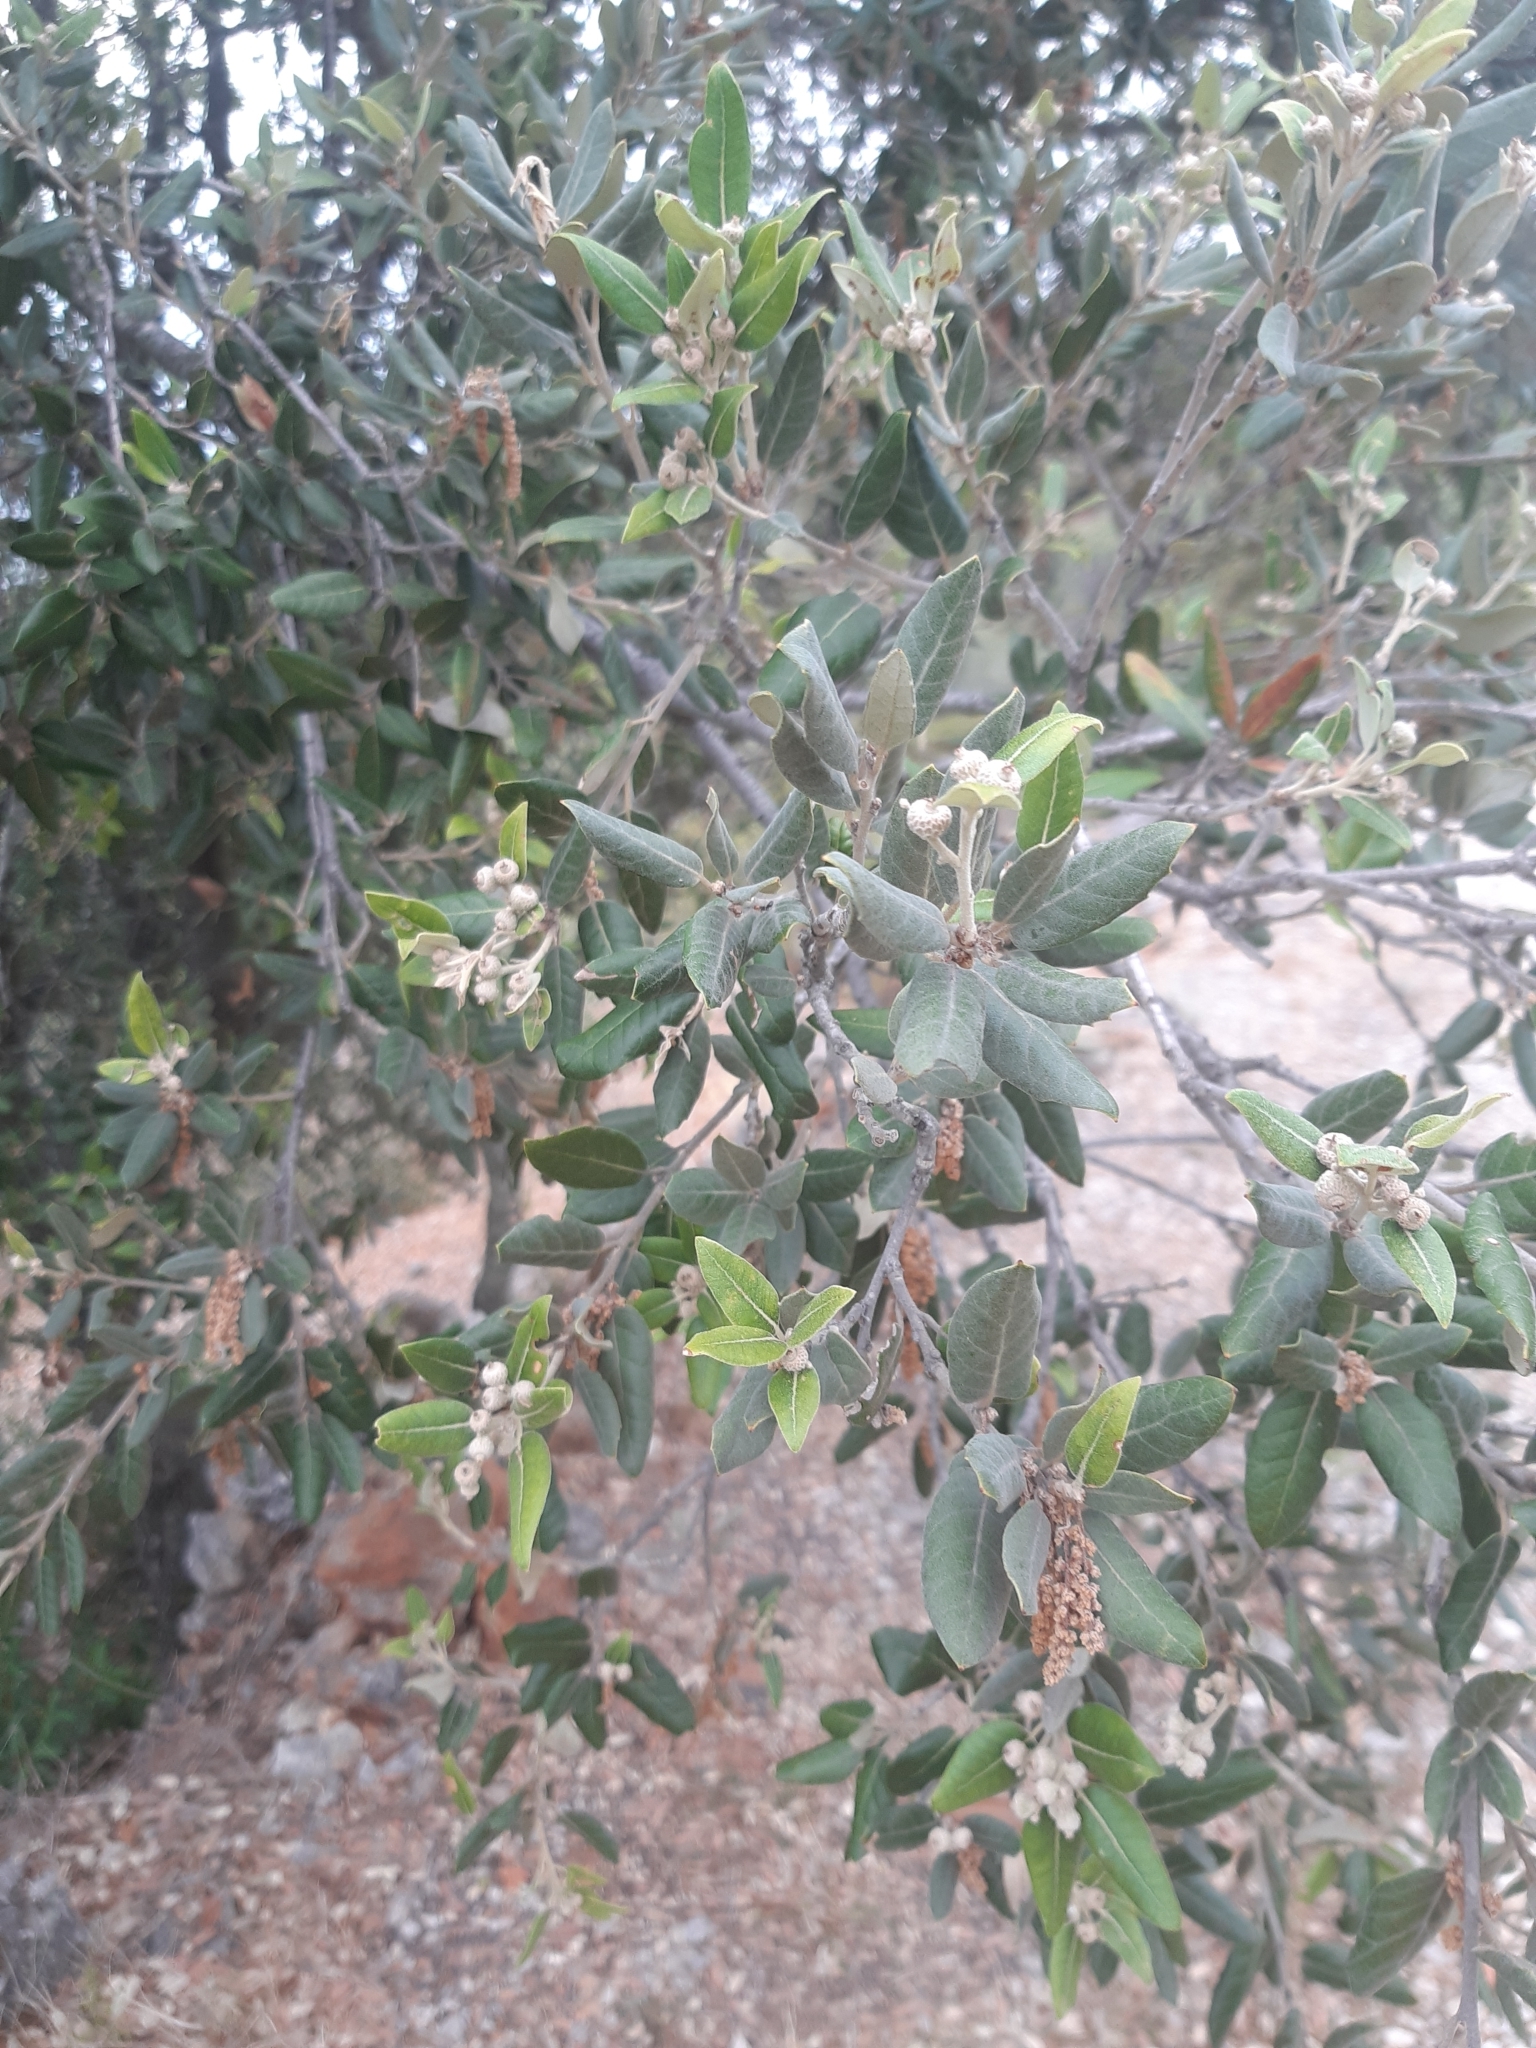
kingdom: Plantae
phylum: Tracheophyta
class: Magnoliopsida
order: Fagales
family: Fagaceae
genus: Quercus
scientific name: Quercus ilex
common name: Evergreen oak
